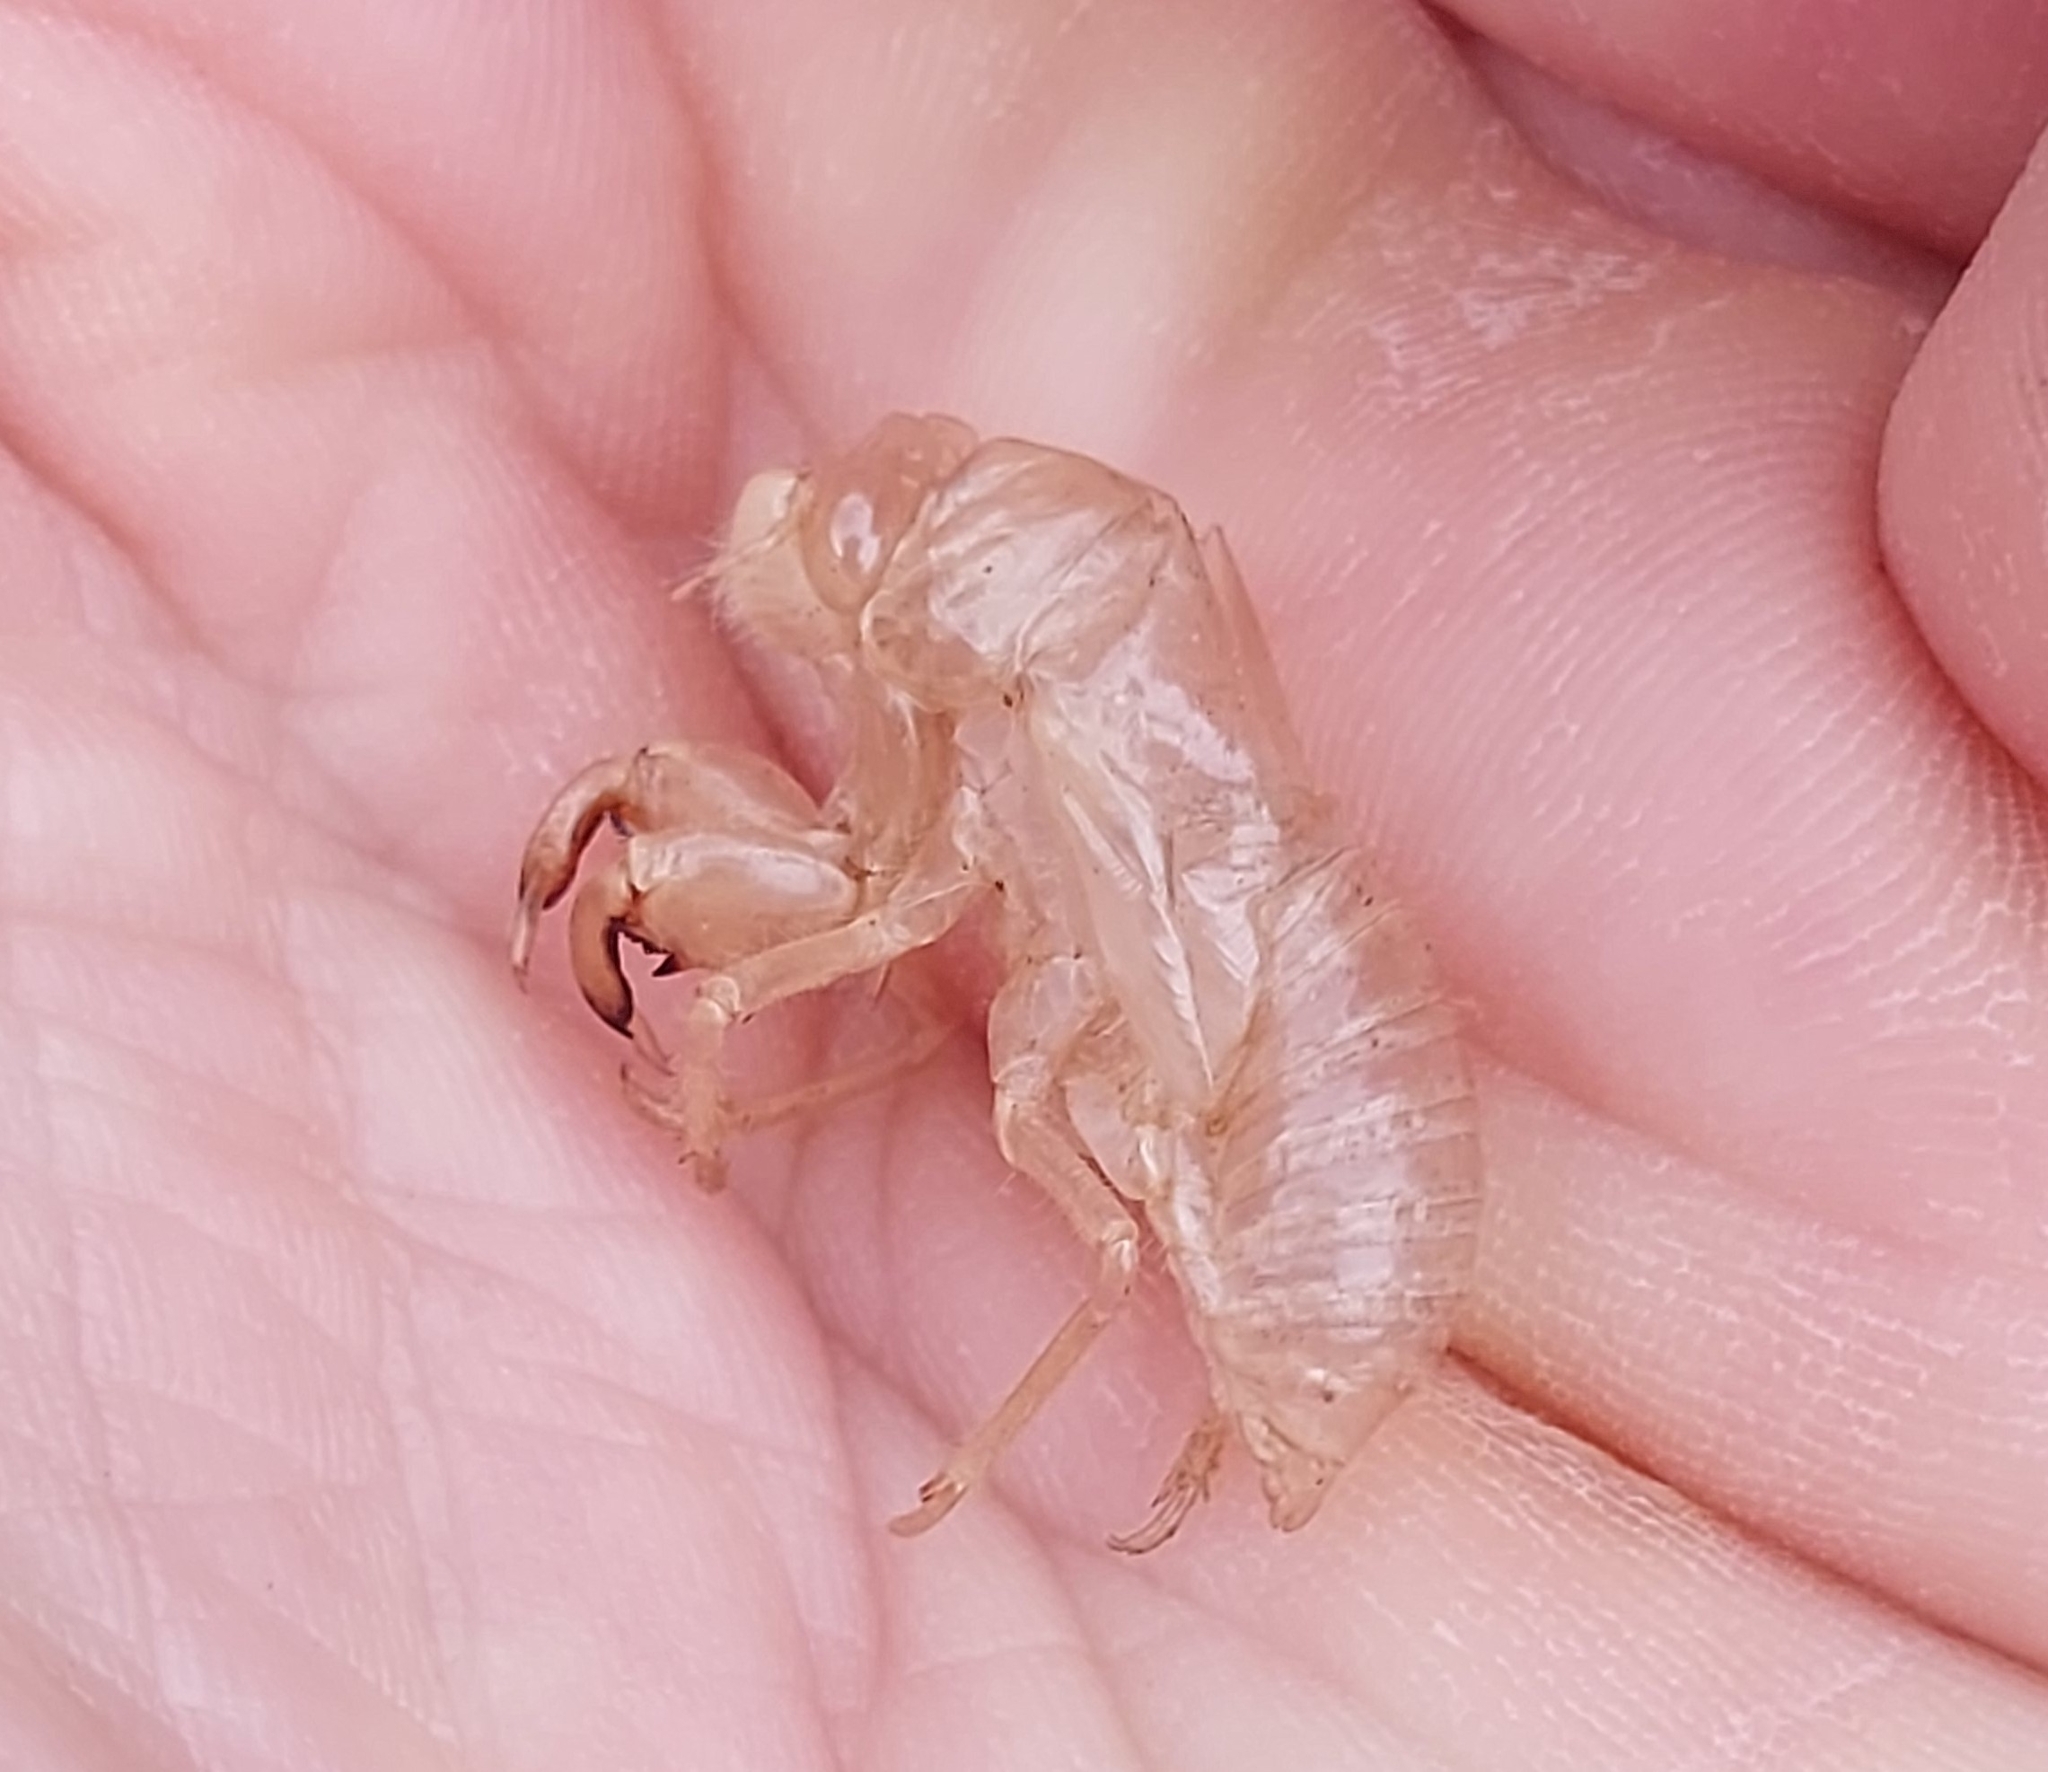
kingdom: Animalia
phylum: Arthropoda
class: Insecta
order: Hemiptera
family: Cicadidae
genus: Cicada
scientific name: Cicada cretensis
